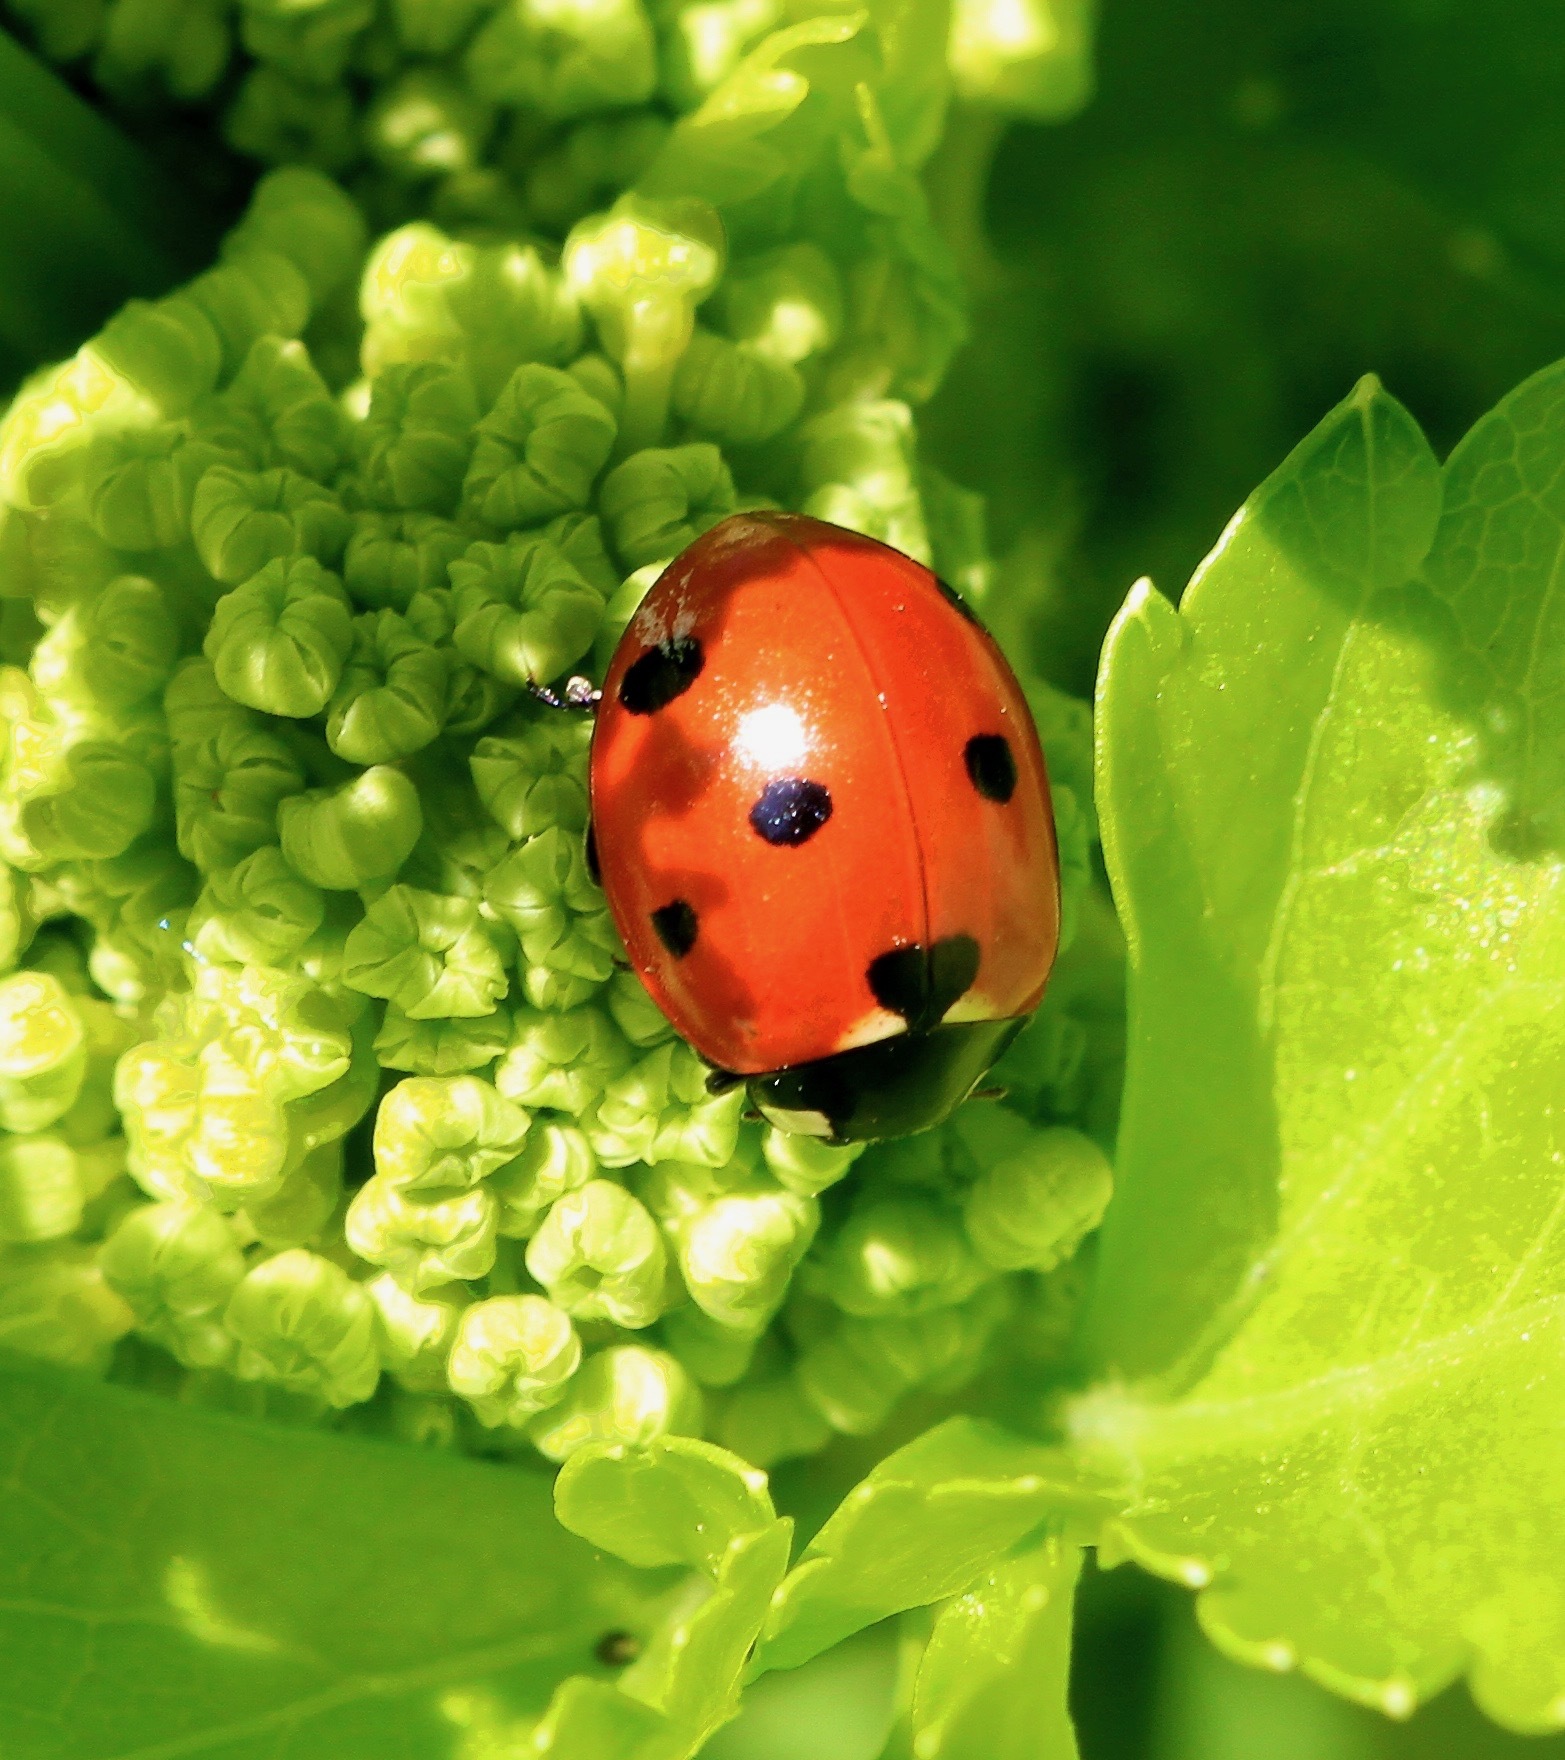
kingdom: Animalia
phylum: Arthropoda
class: Insecta
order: Coleoptera
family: Coccinellidae
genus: Coccinella
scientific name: Coccinella septempunctata
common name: Sevenspotted lady beetle
